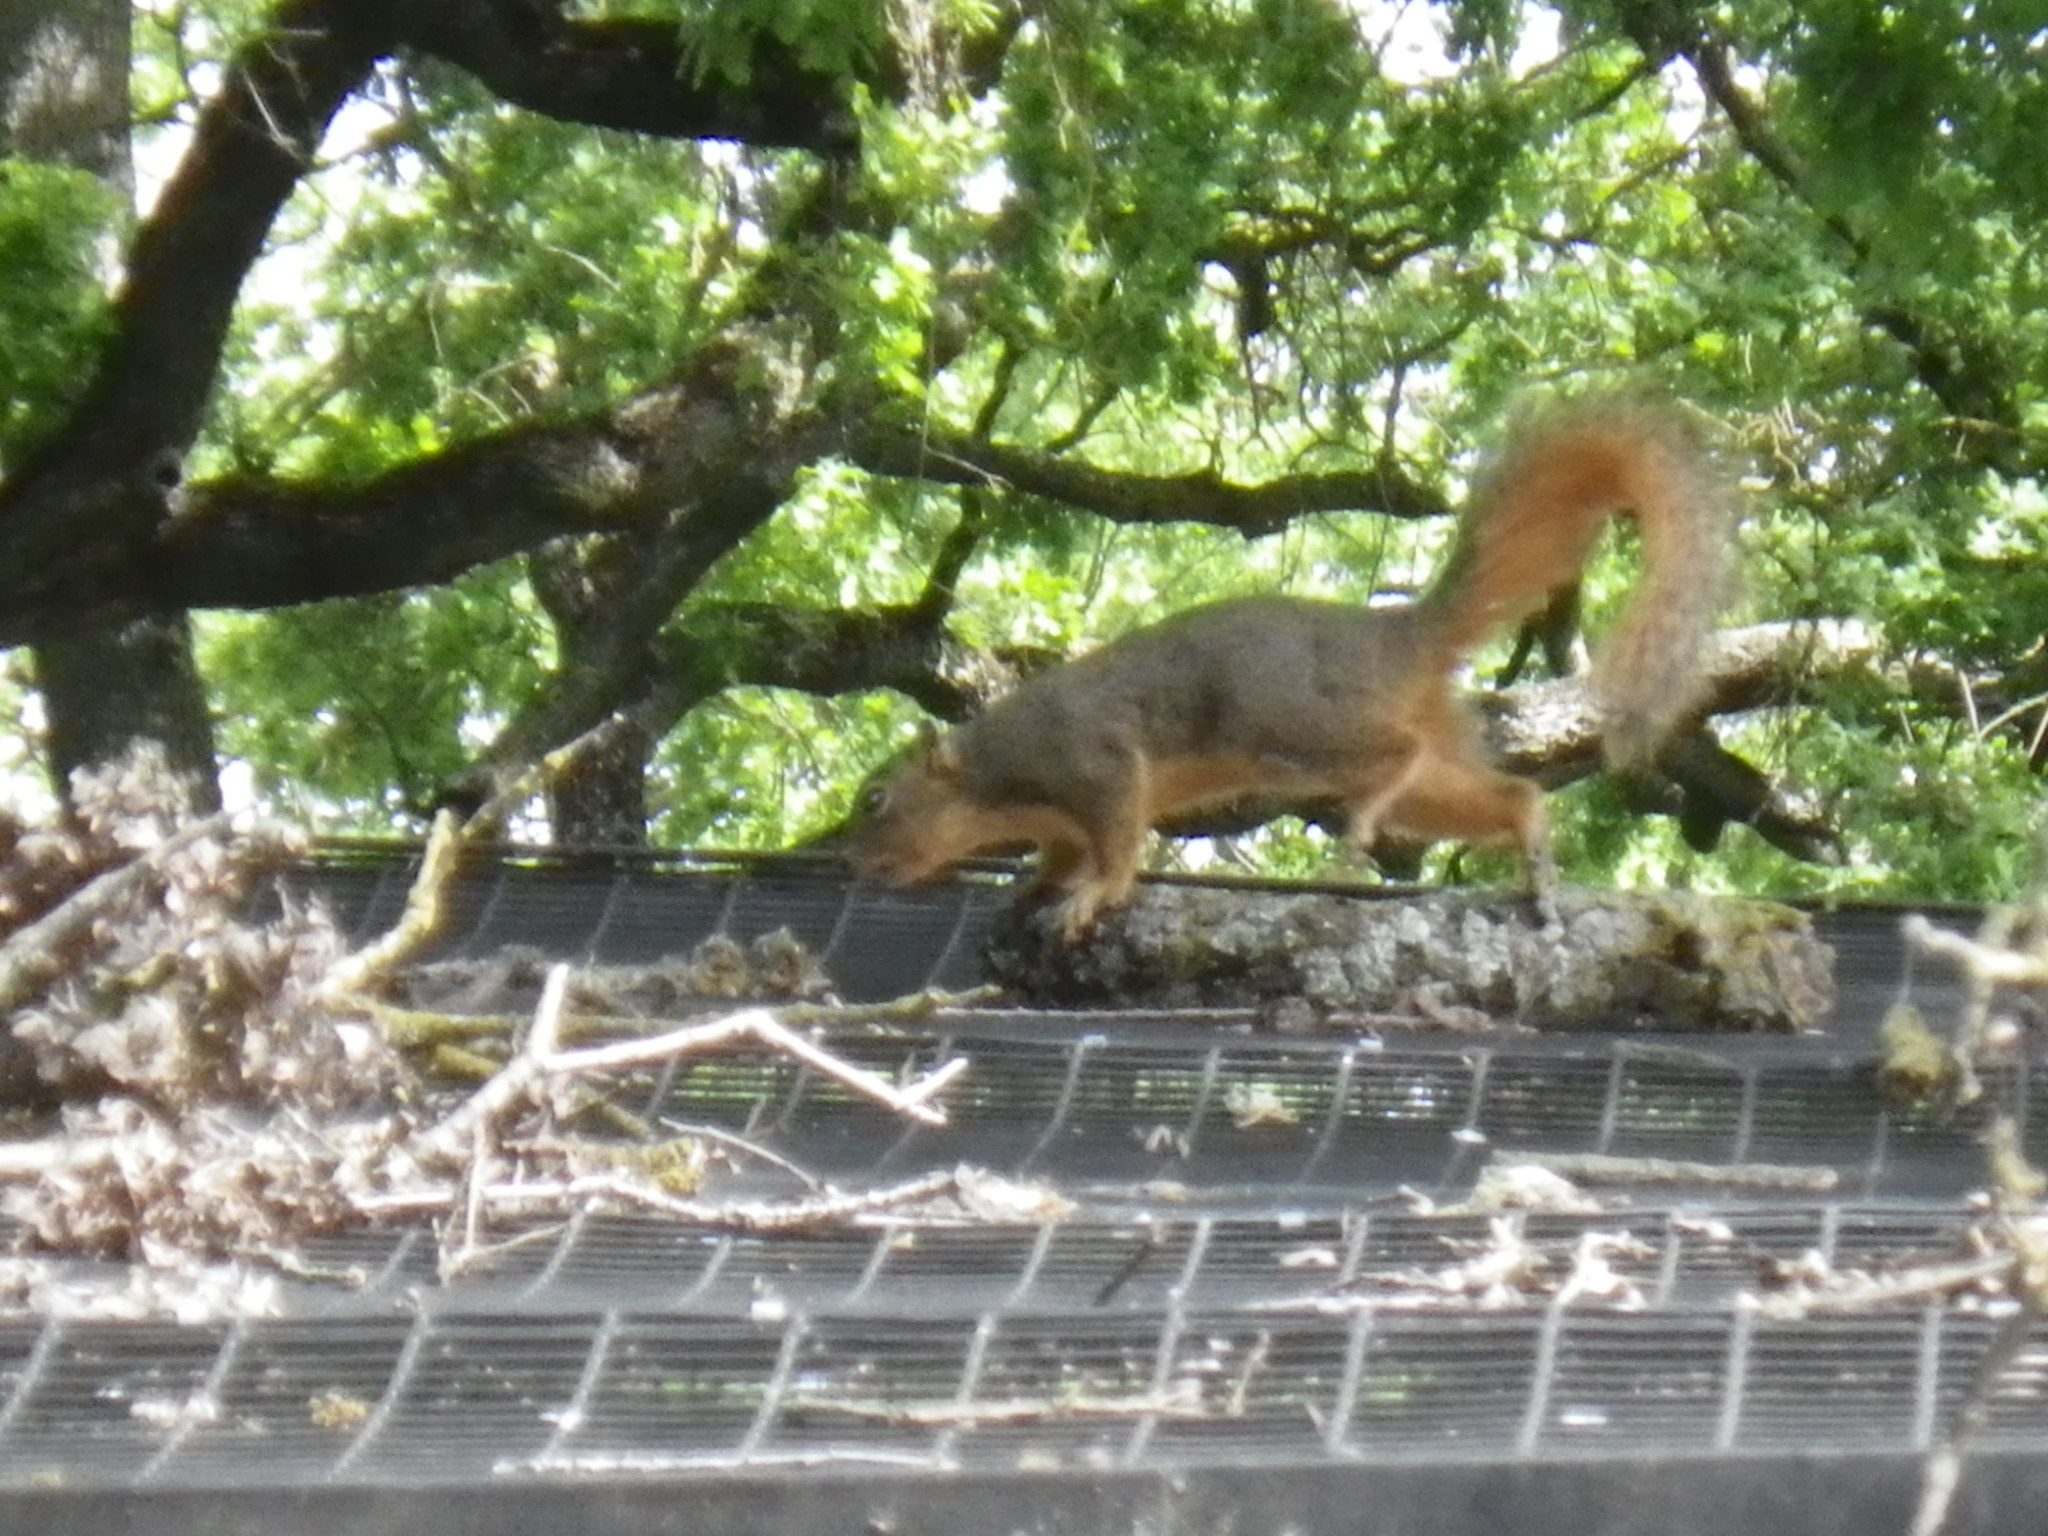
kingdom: Animalia
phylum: Chordata
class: Mammalia
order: Rodentia
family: Sciuridae
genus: Sciurus
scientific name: Sciurus niger
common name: Fox squirrel
